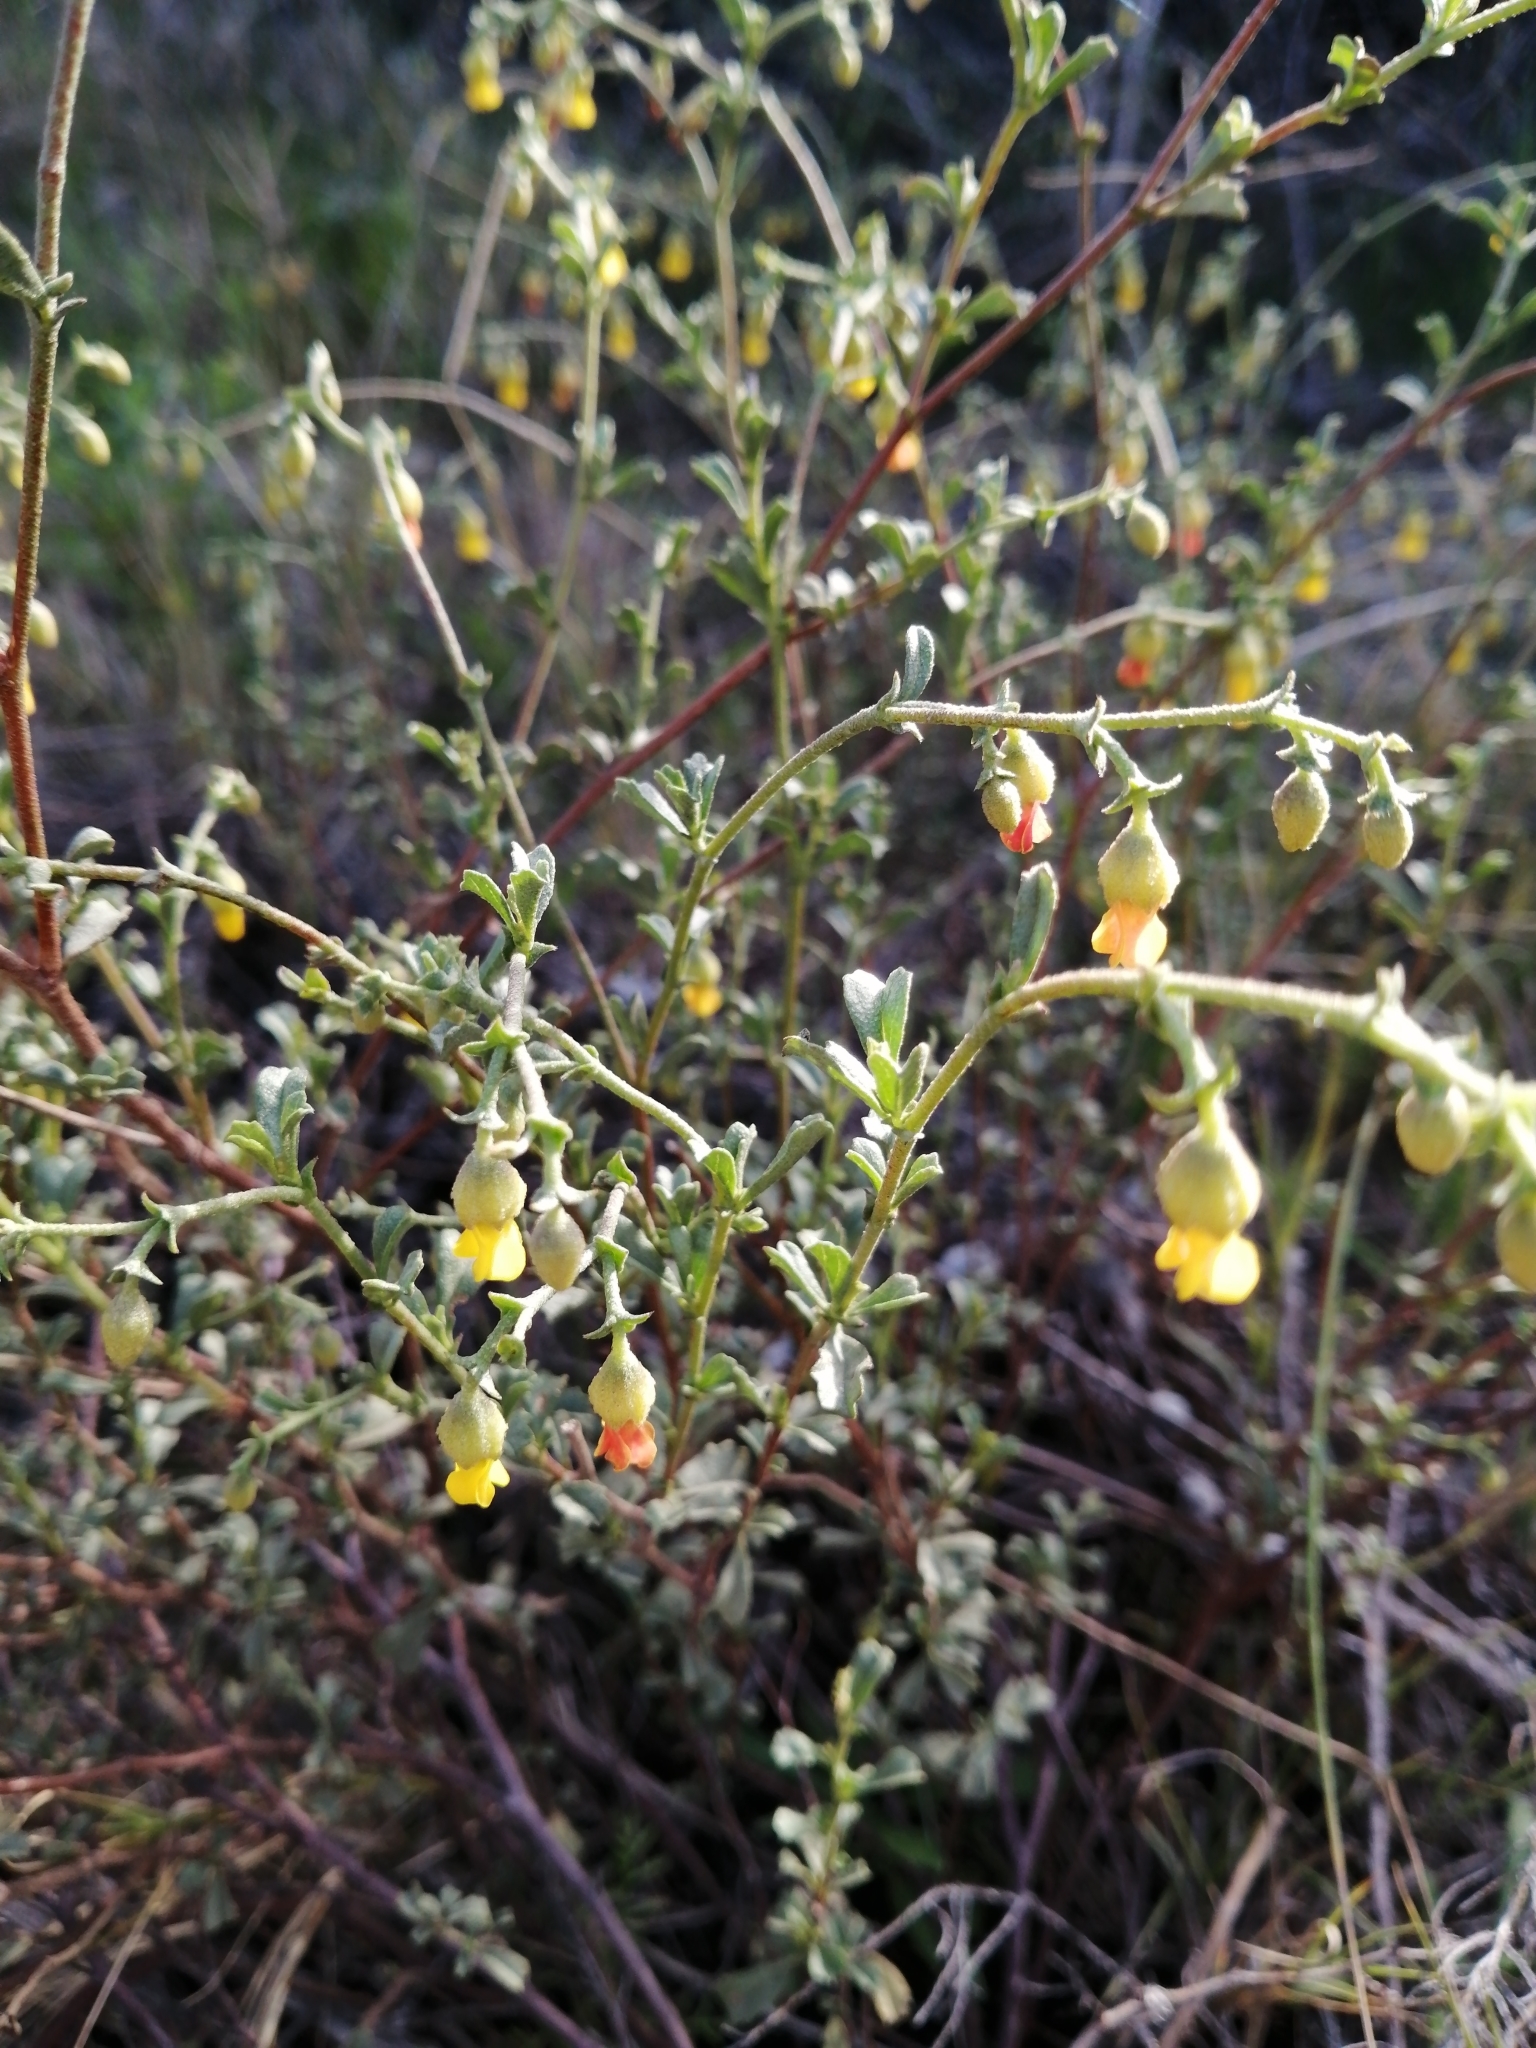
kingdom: Plantae
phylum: Tracheophyta
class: Magnoliopsida
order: Malvales
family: Malvaceae
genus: Hermannia
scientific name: Hermannia cuneifolia
